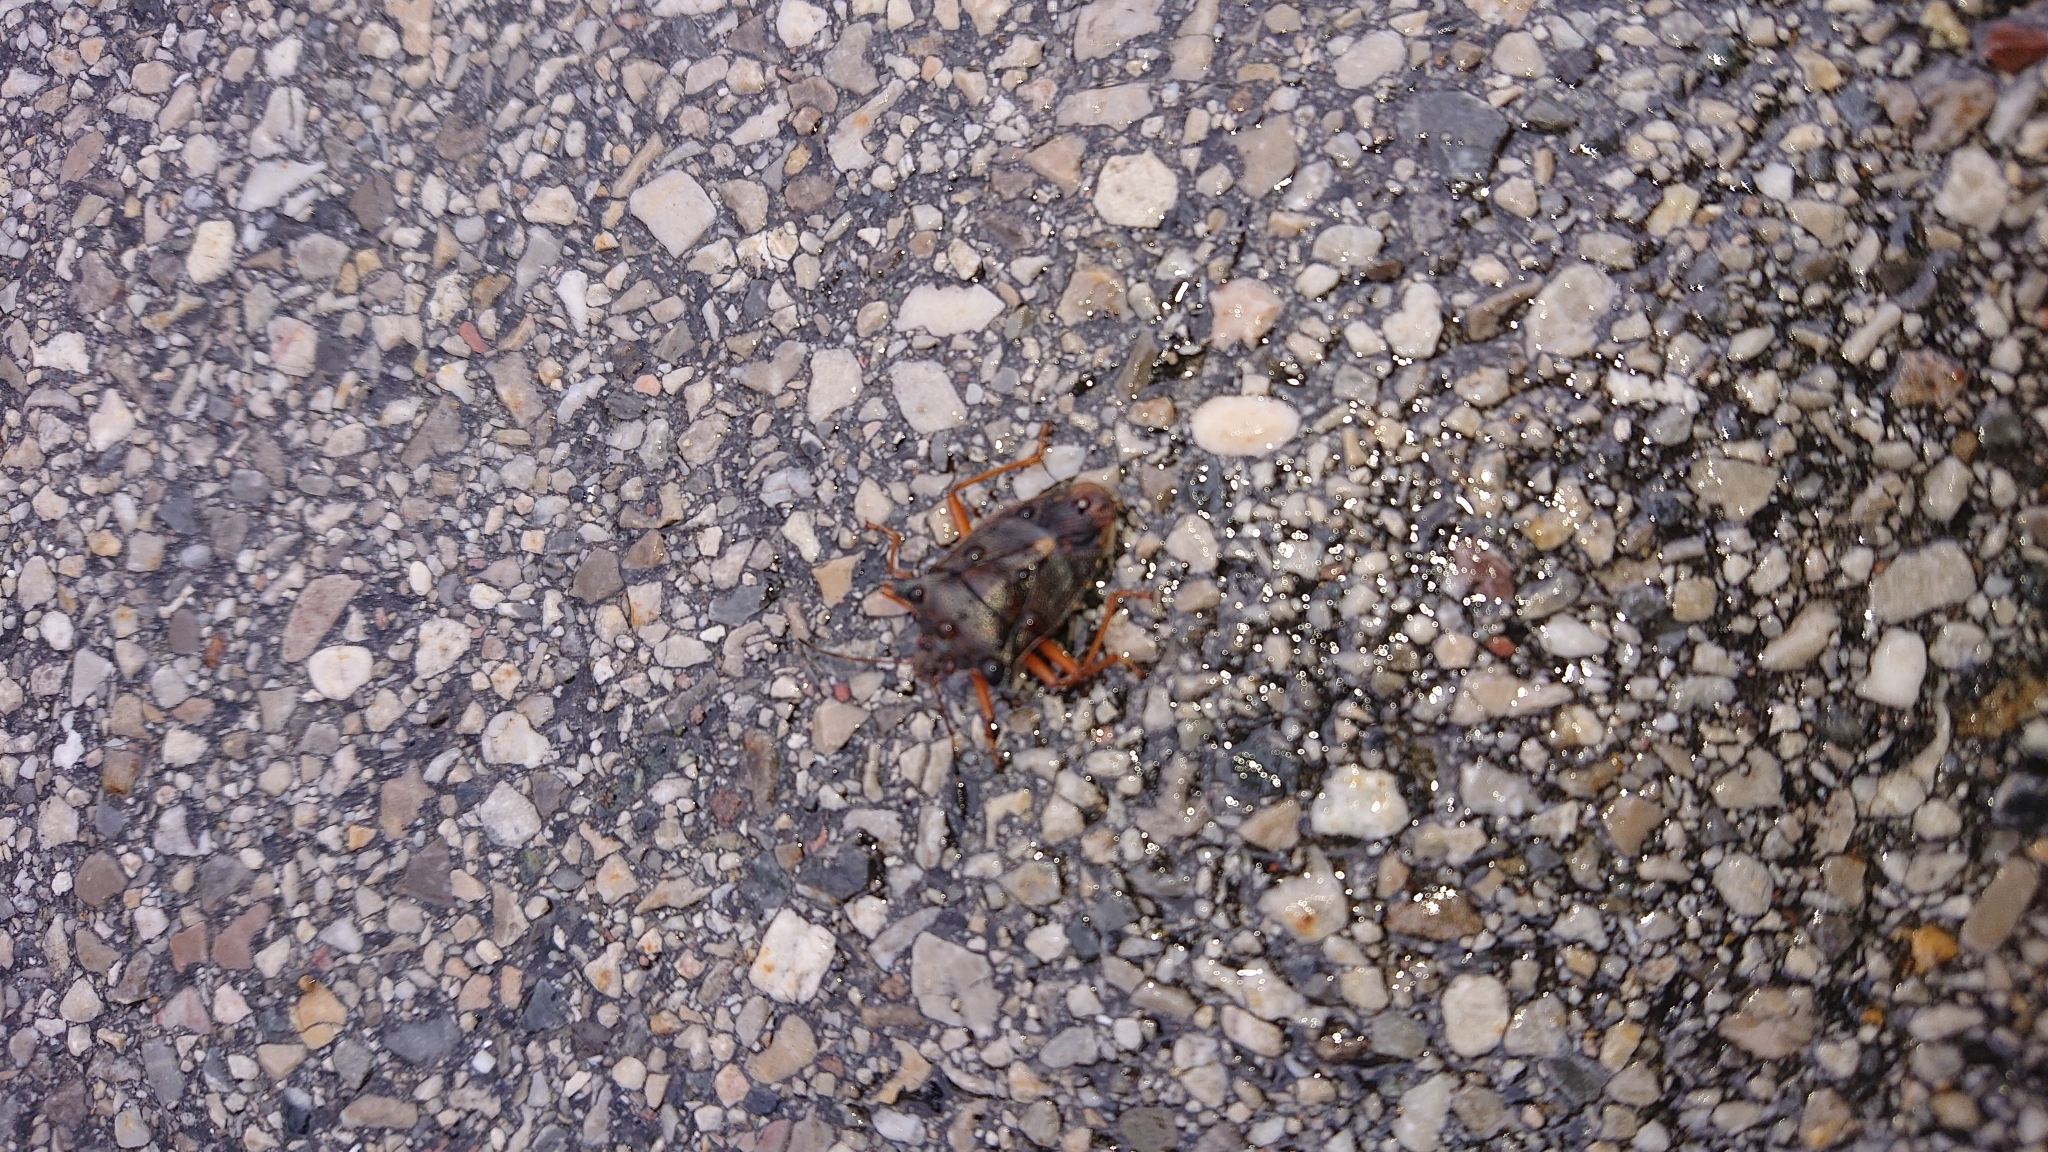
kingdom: Animalia
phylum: Arthropoda
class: Insecta
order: Hemiptera
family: Pentatomidae
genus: Pentatoma
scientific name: Pentatoma rufipes
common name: Forest bug
